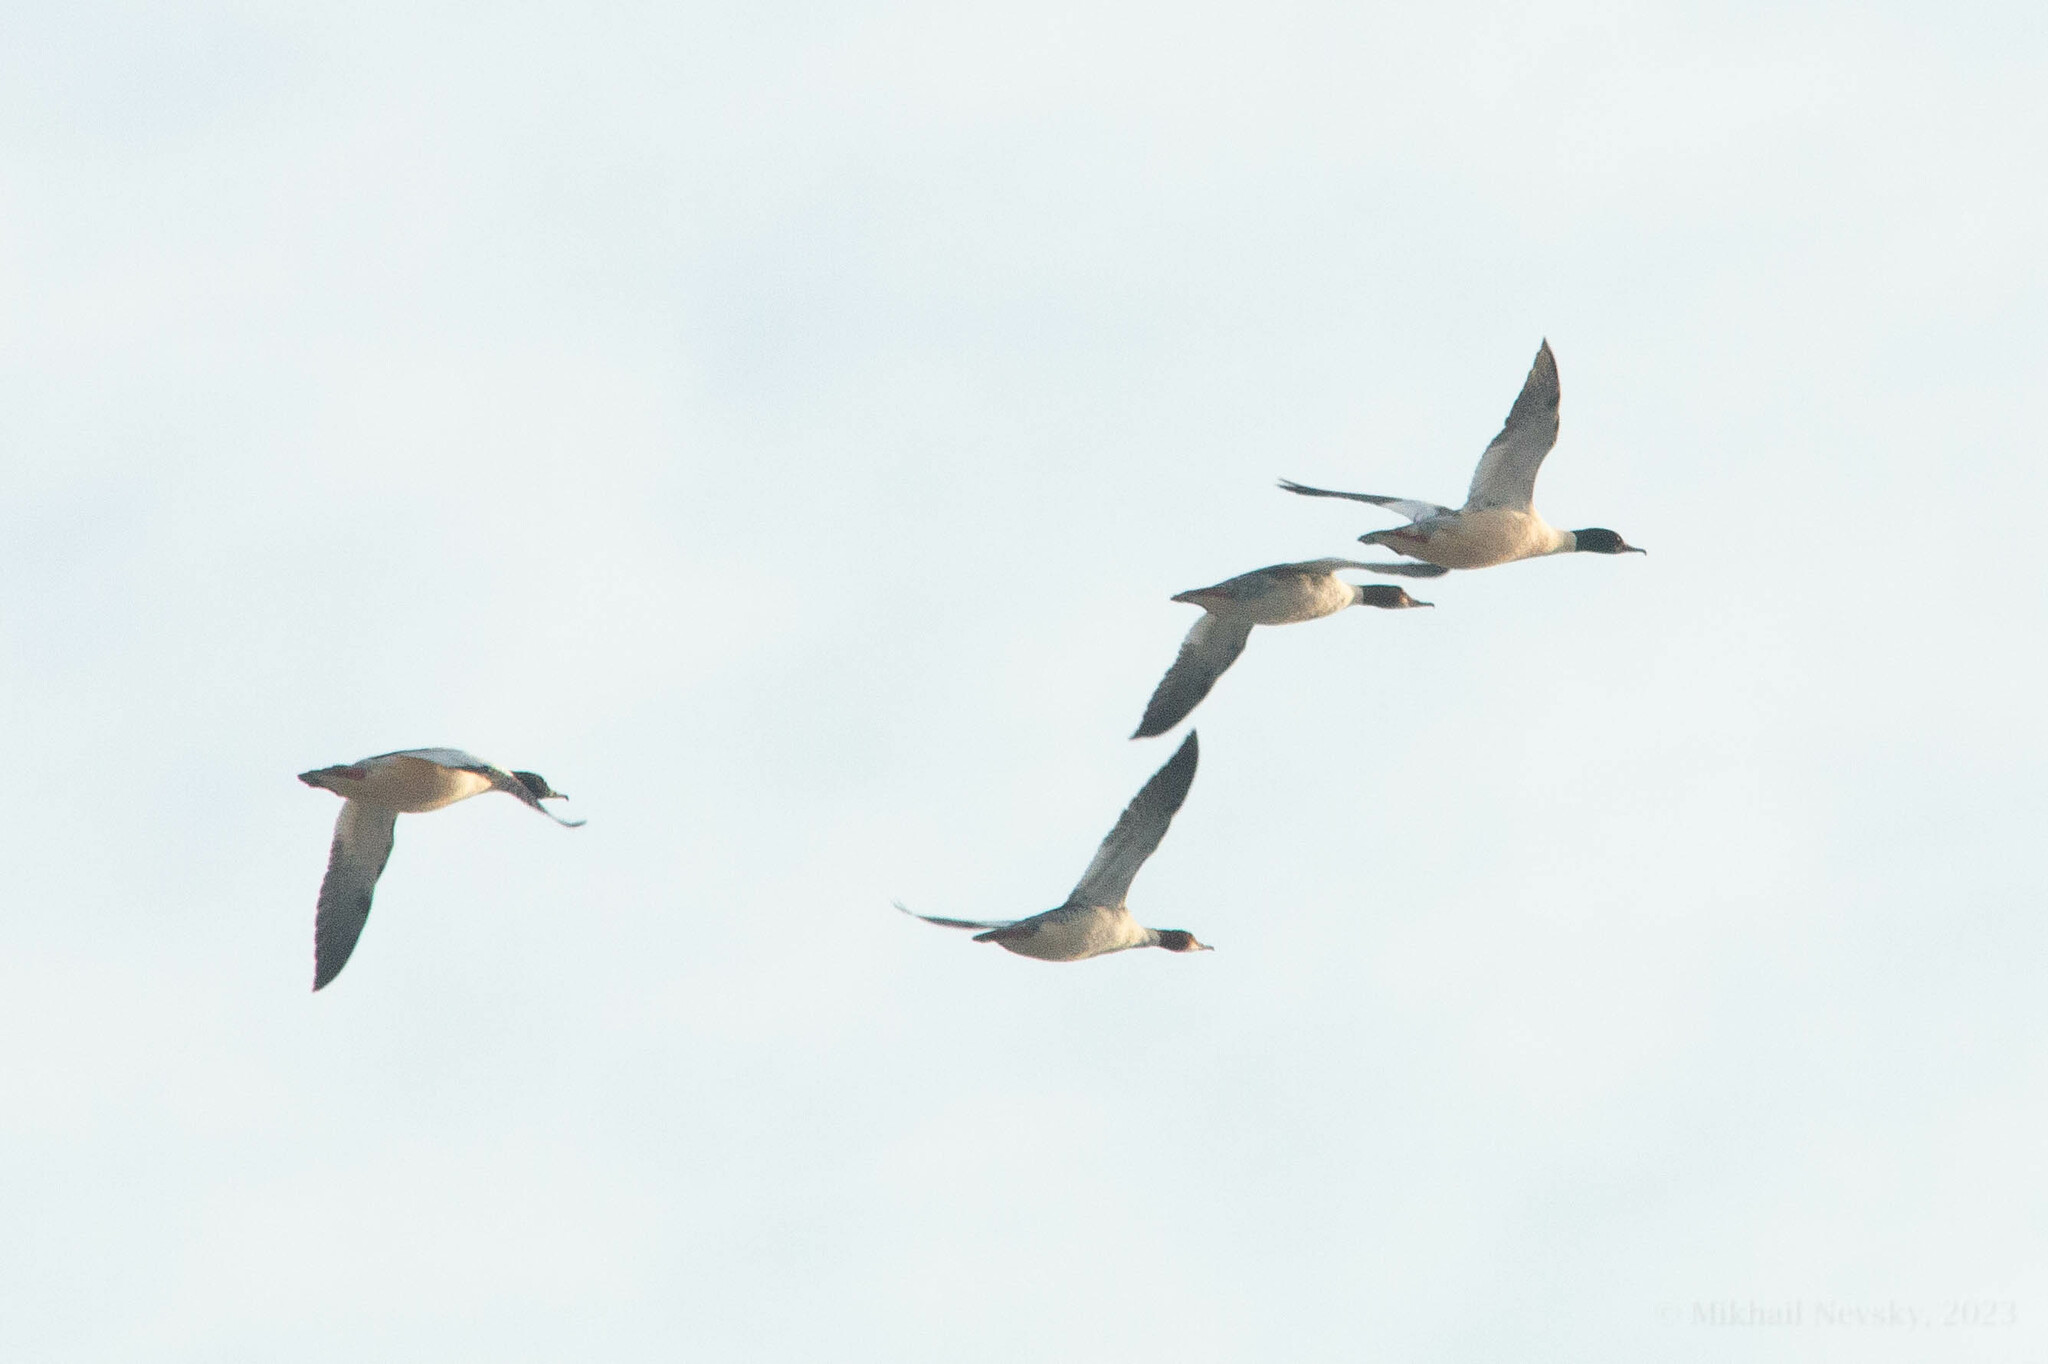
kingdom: Animalia
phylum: Chordata
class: Aves
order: Anseriformes
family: Anatidae
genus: Mergus
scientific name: Mergus merganser
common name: Common merganser
